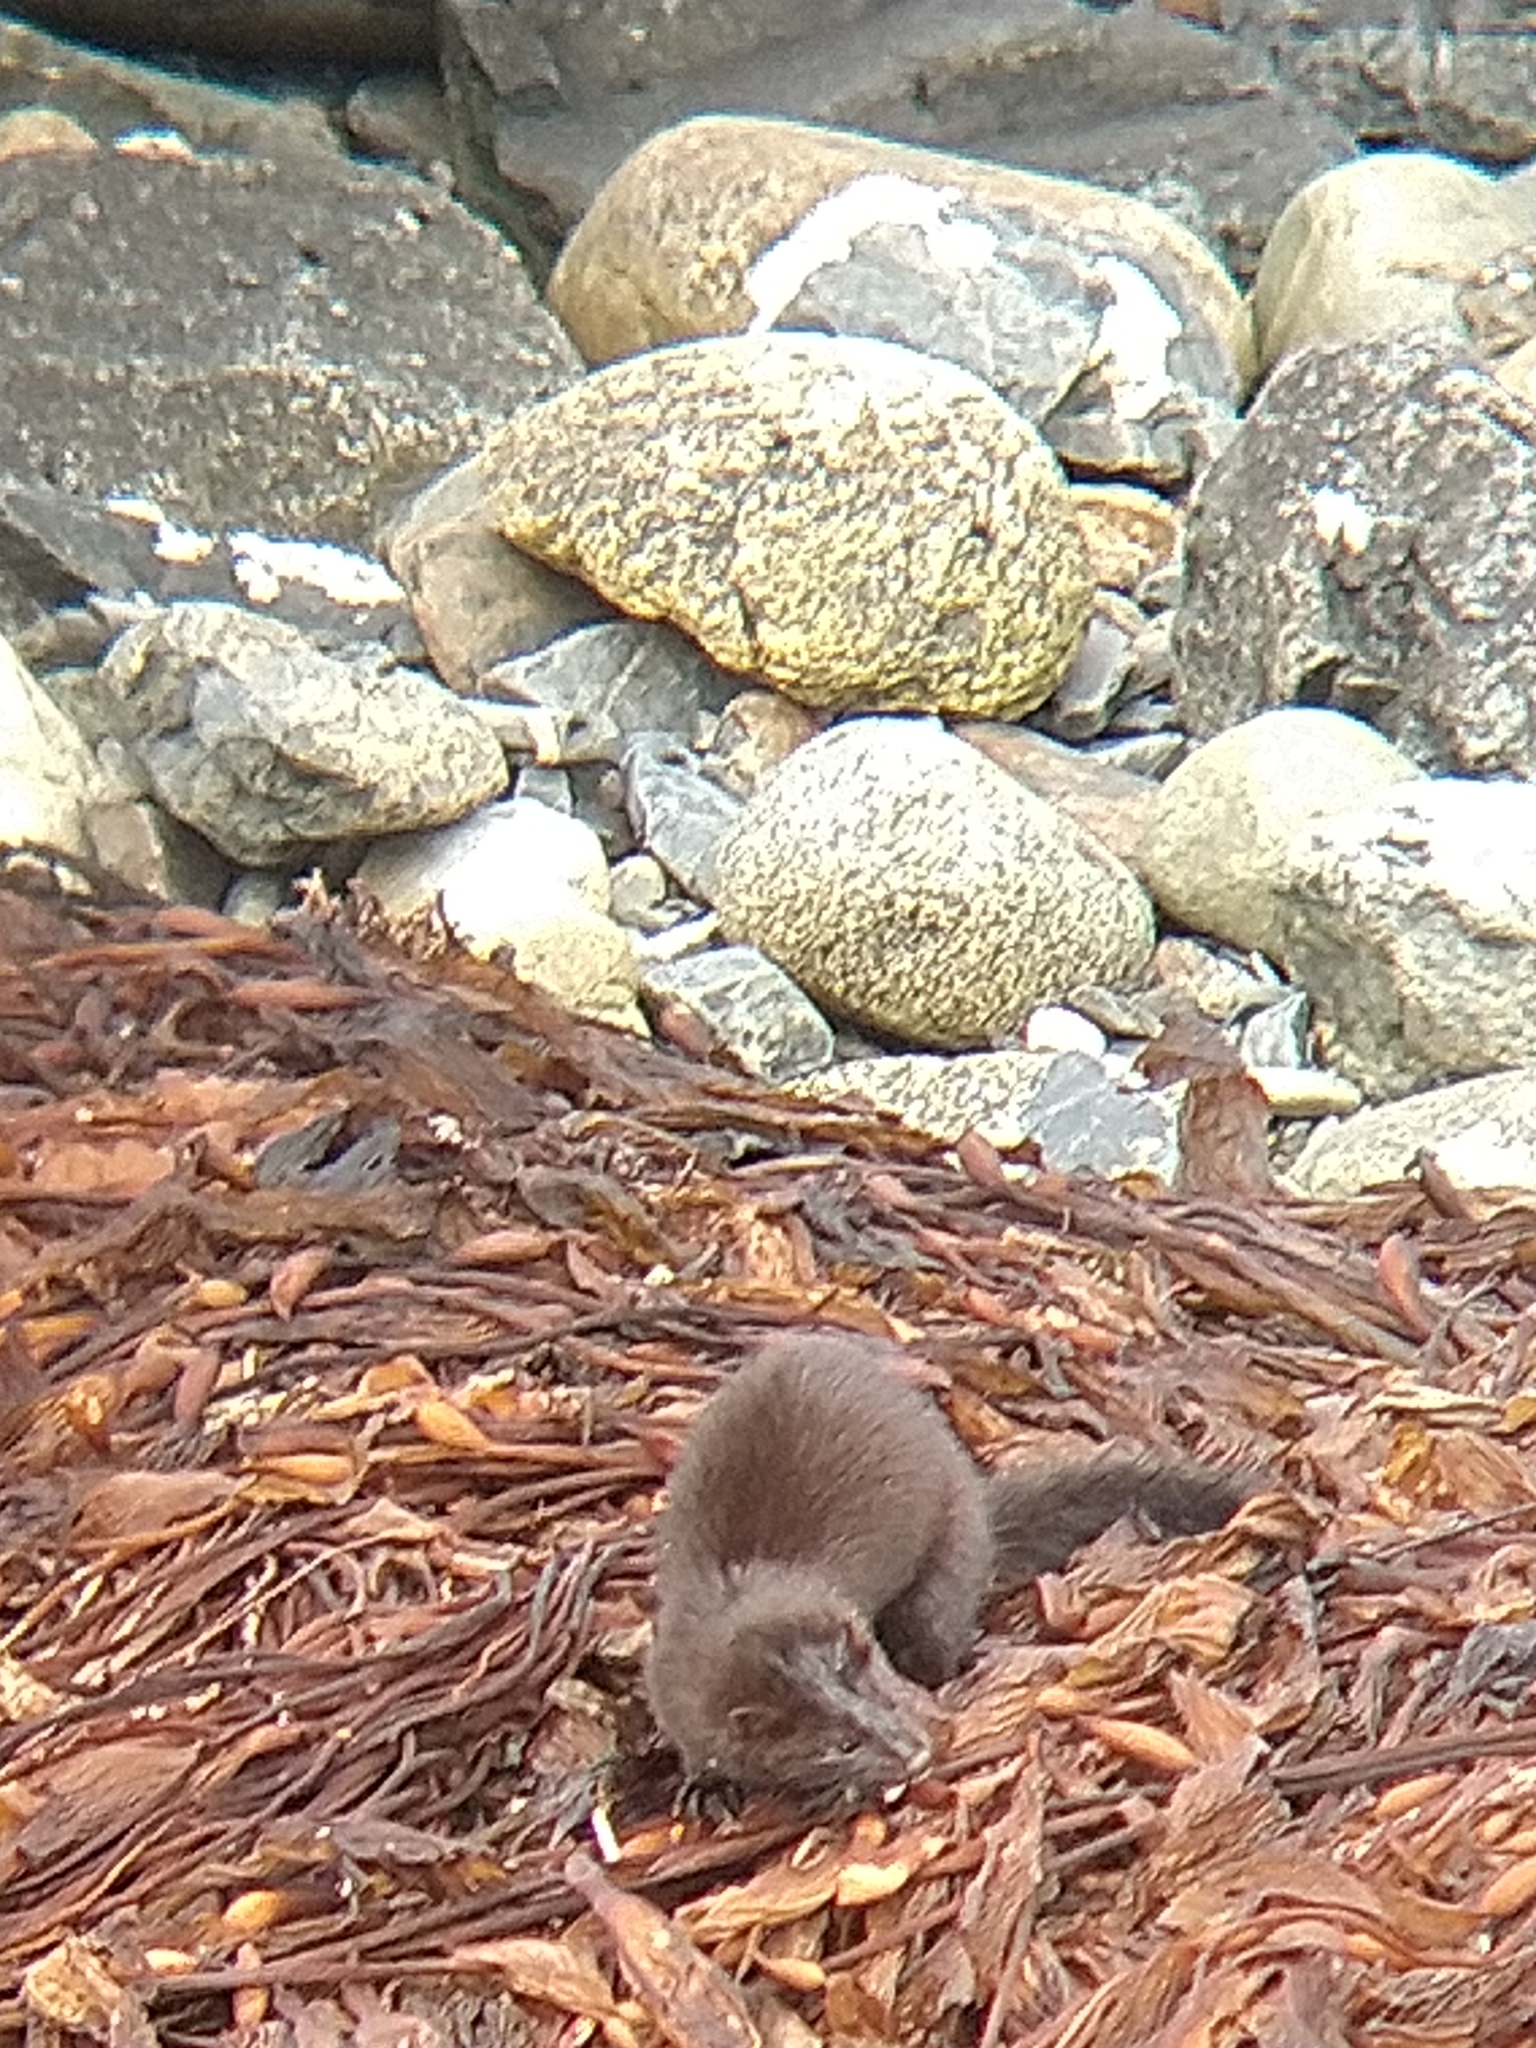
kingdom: Animalia
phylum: Chordata
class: Mammalia
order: Carnivora
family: Mustelidae
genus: Mustela
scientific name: Mustela
